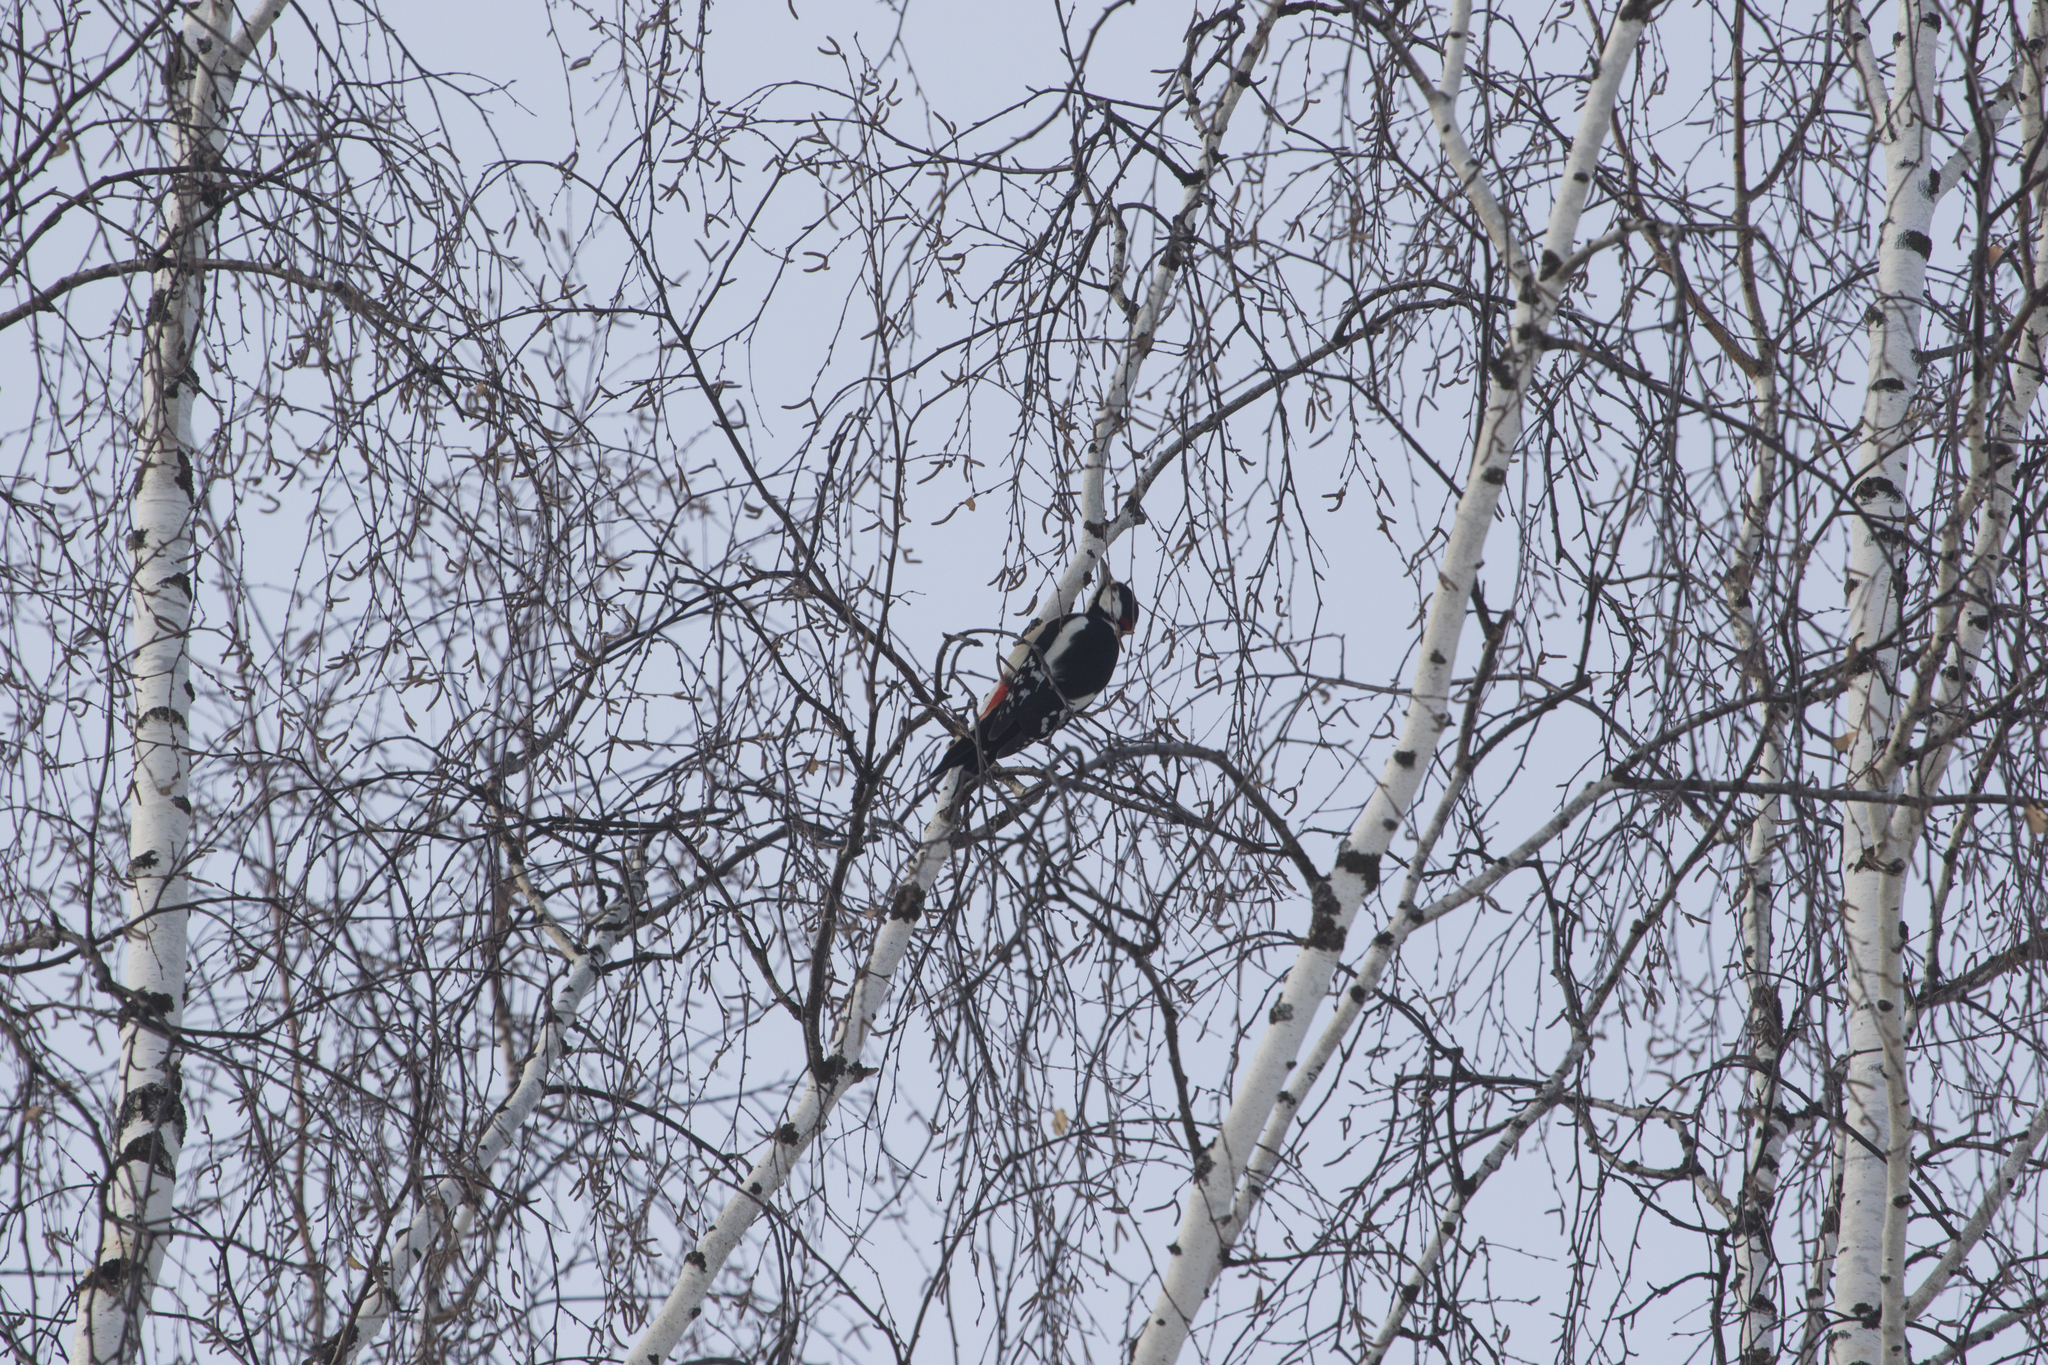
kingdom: Animalia
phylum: Chordata
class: Aves
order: Piciformes
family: Picidae
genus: Dendrocopos
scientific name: Dendrocopos major
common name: Great spotted woodpecker
